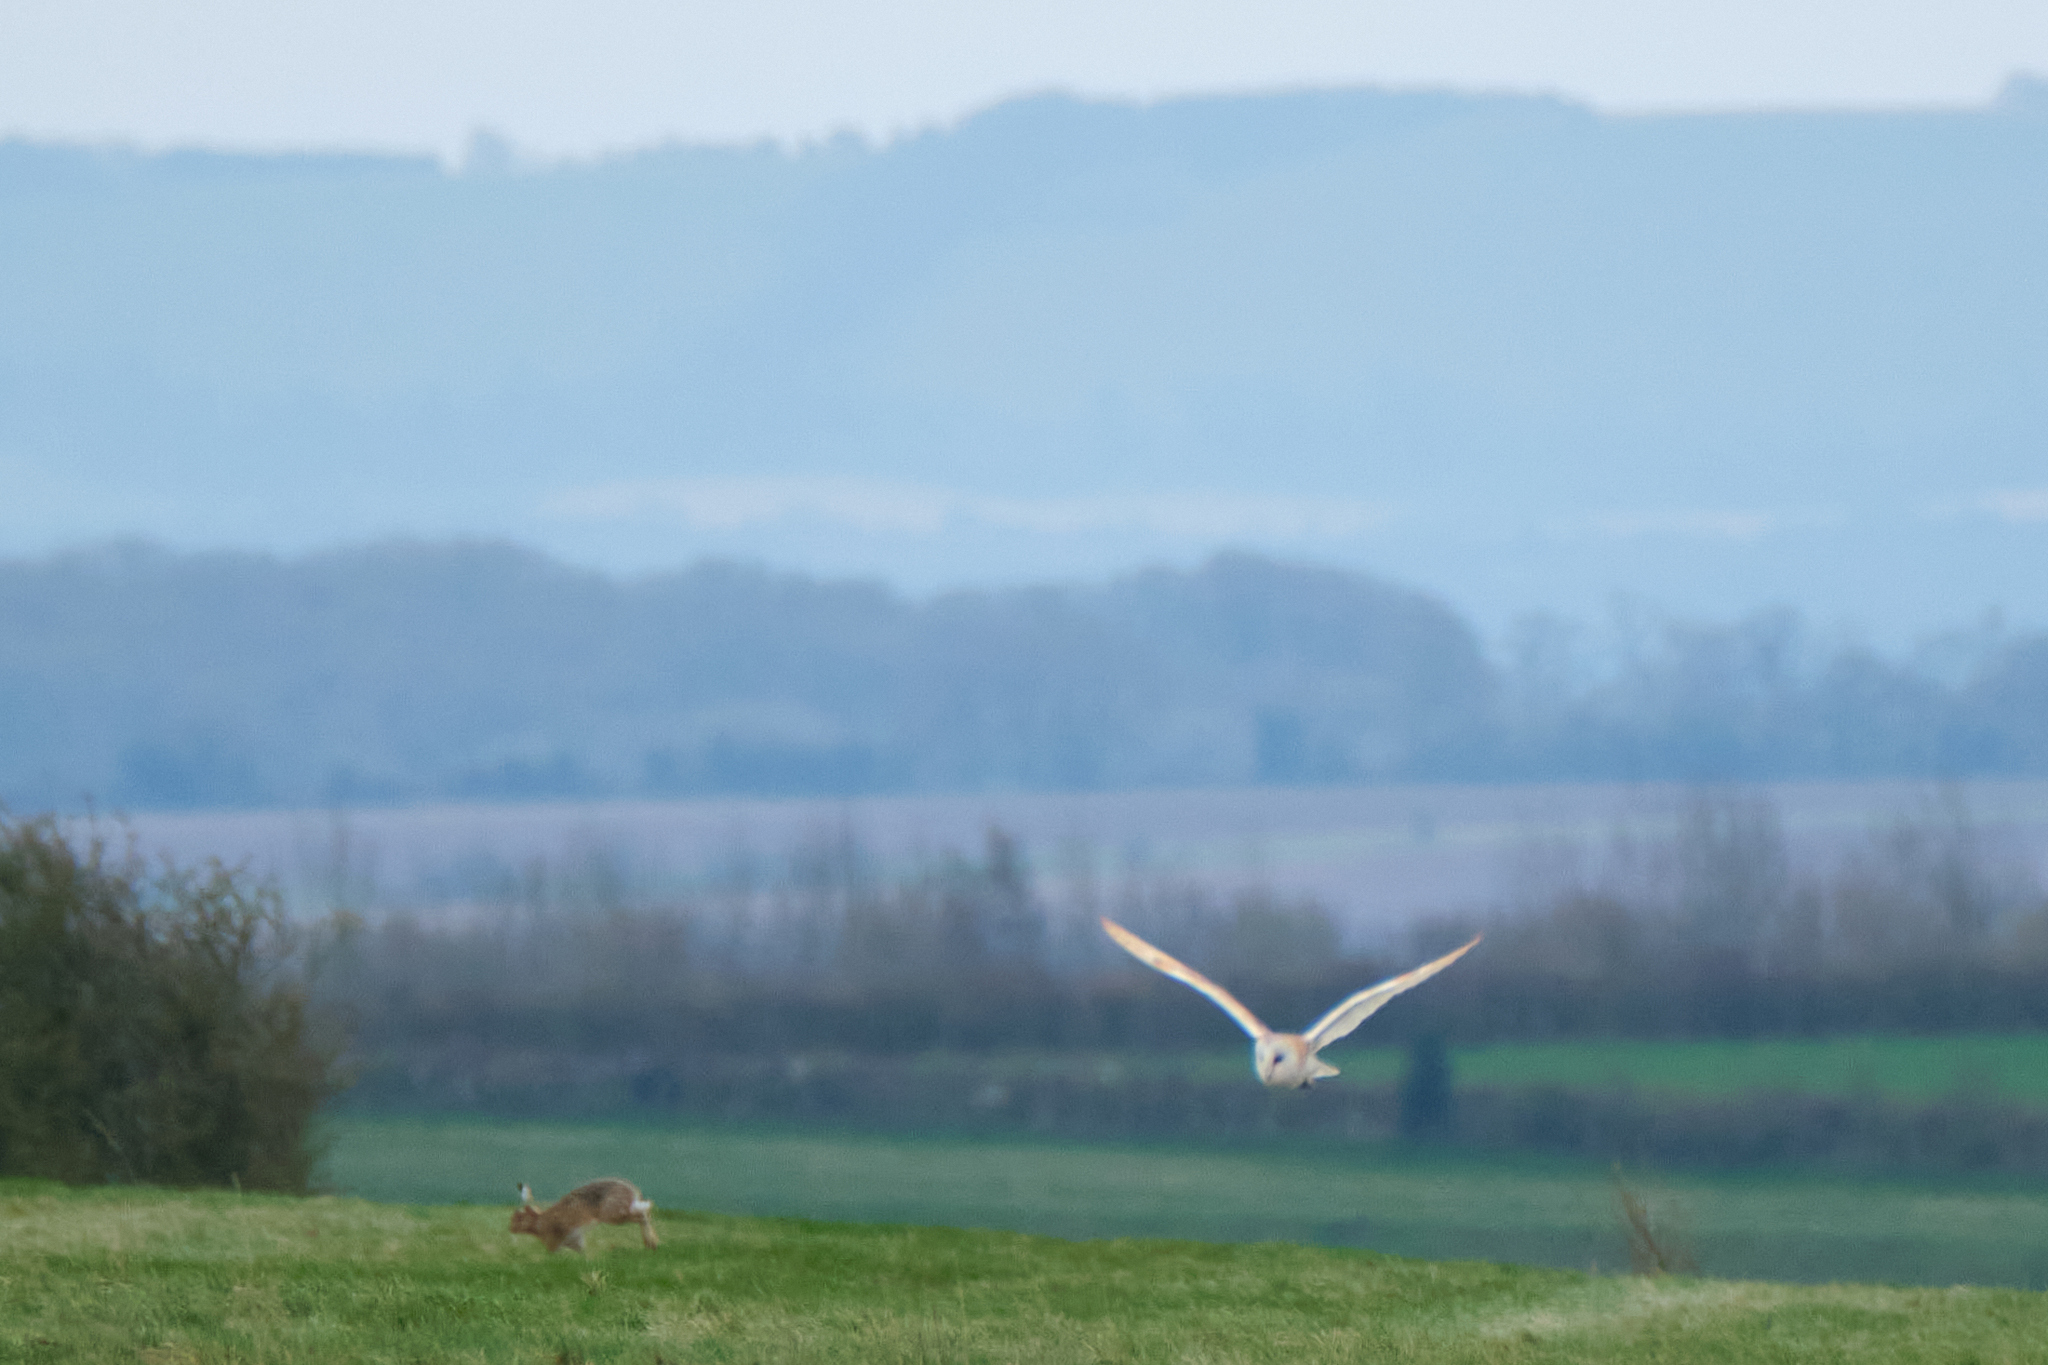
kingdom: Animalia
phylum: Chordata
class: Mammalia
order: Lagomorpha
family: Leporidae
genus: Lepus
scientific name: Lepus europaeus
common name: European hare
